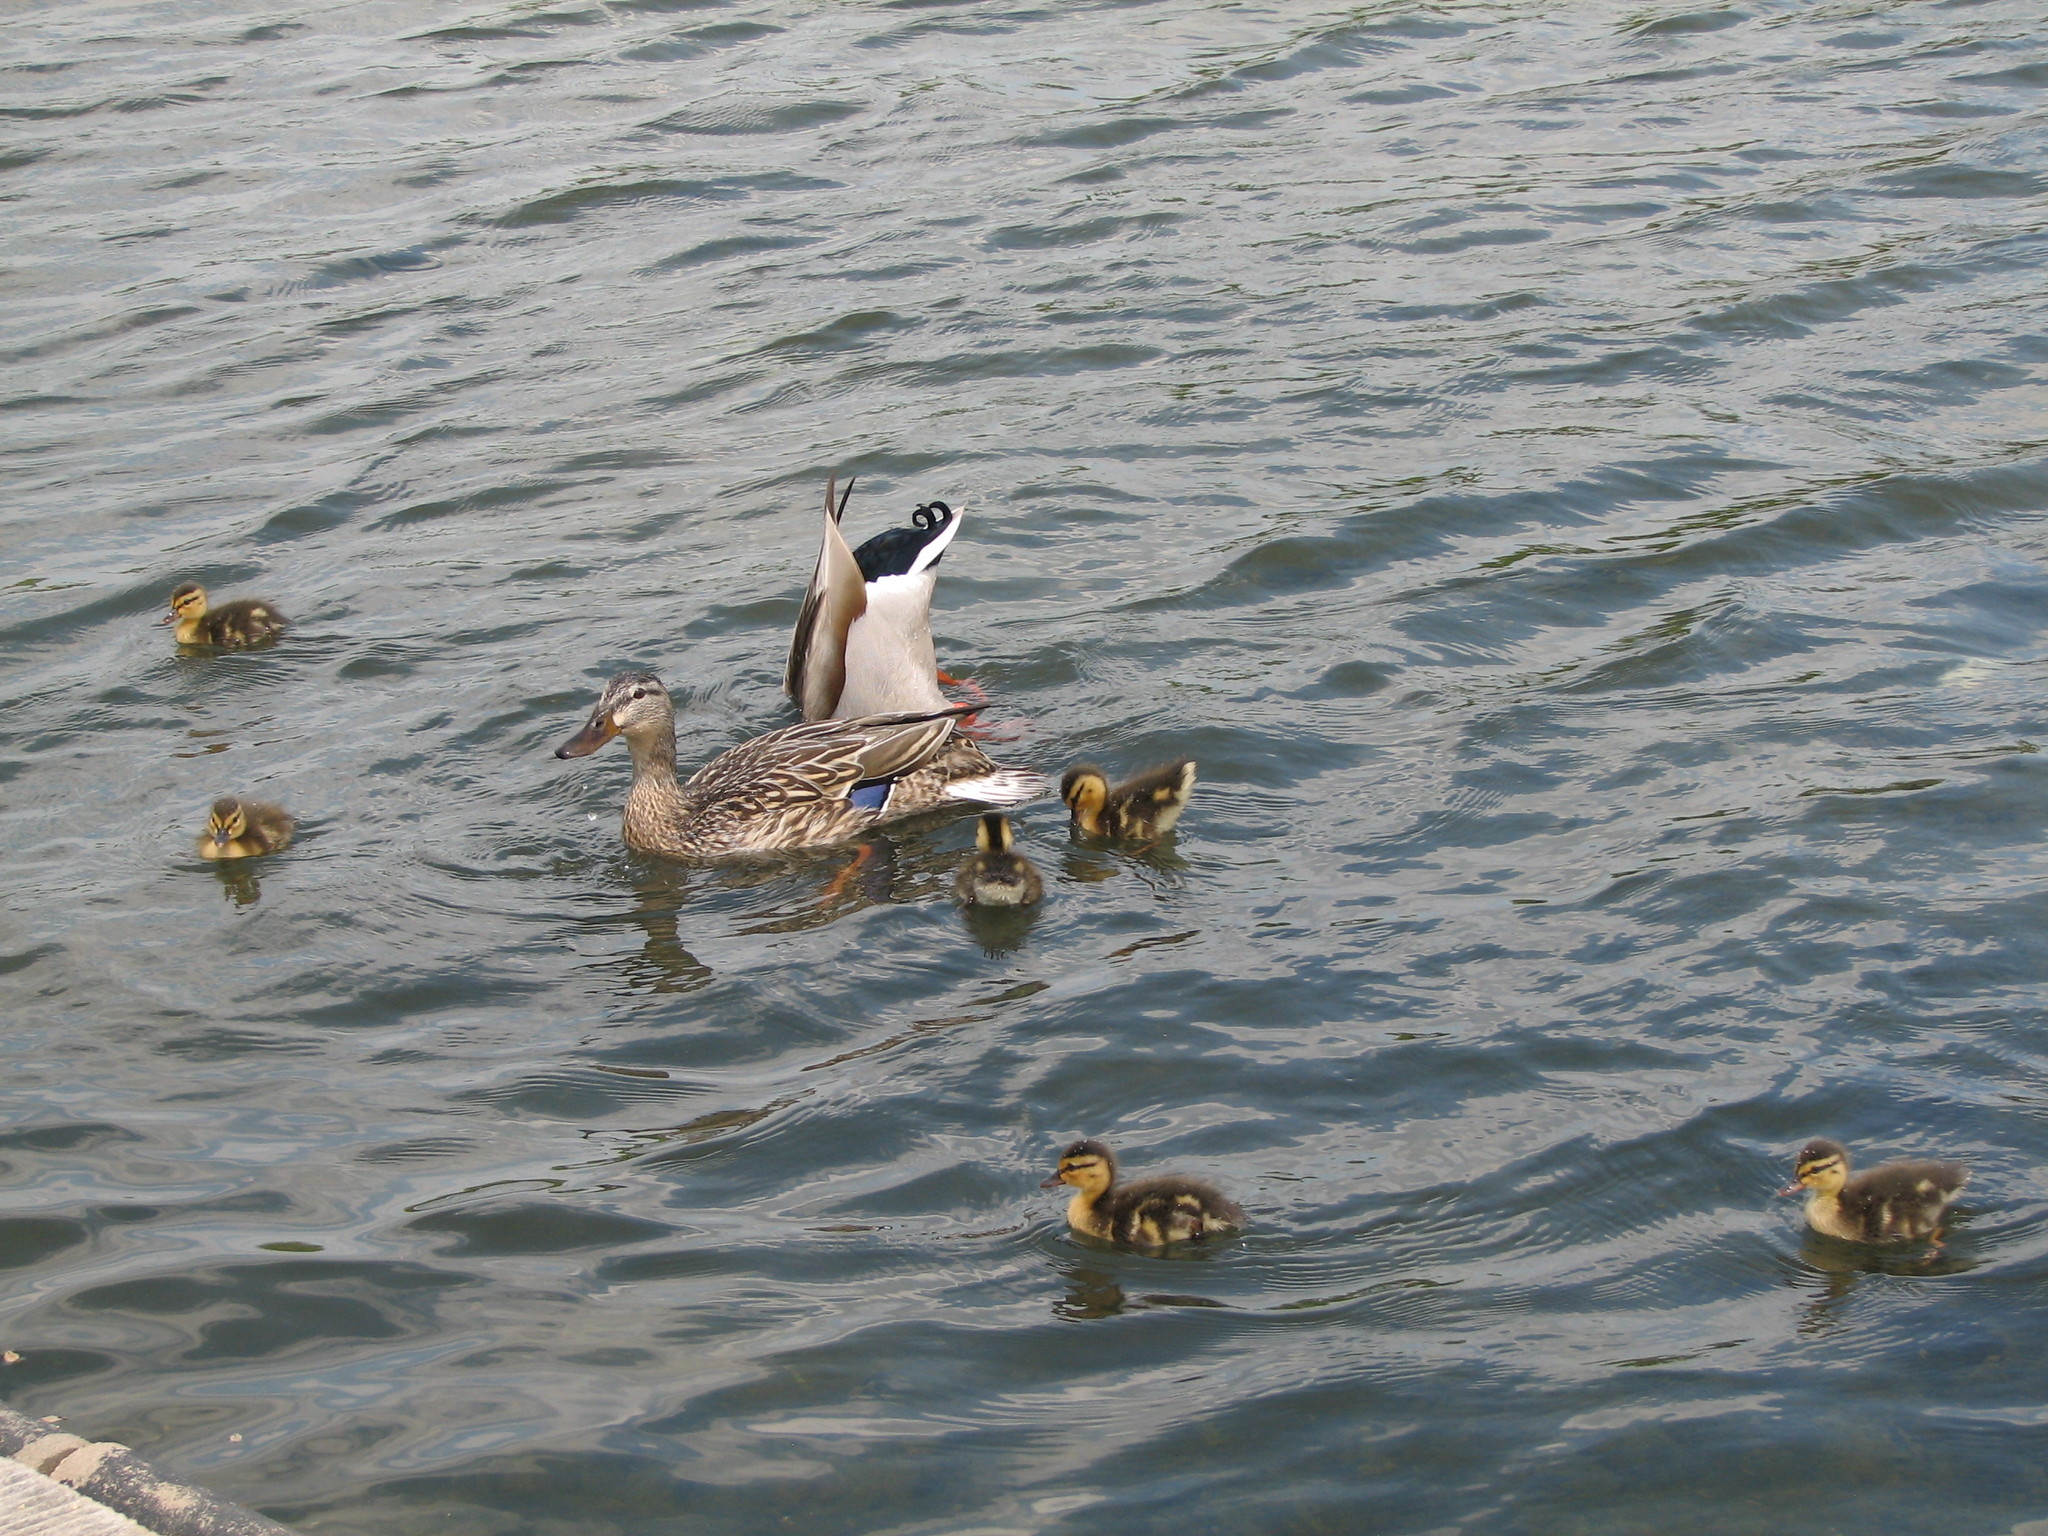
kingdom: Animalia
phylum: Chordata
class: Aves
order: Anseriformes
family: Anatidae
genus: Anas
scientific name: Anas platyrhynchos
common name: Mallard
